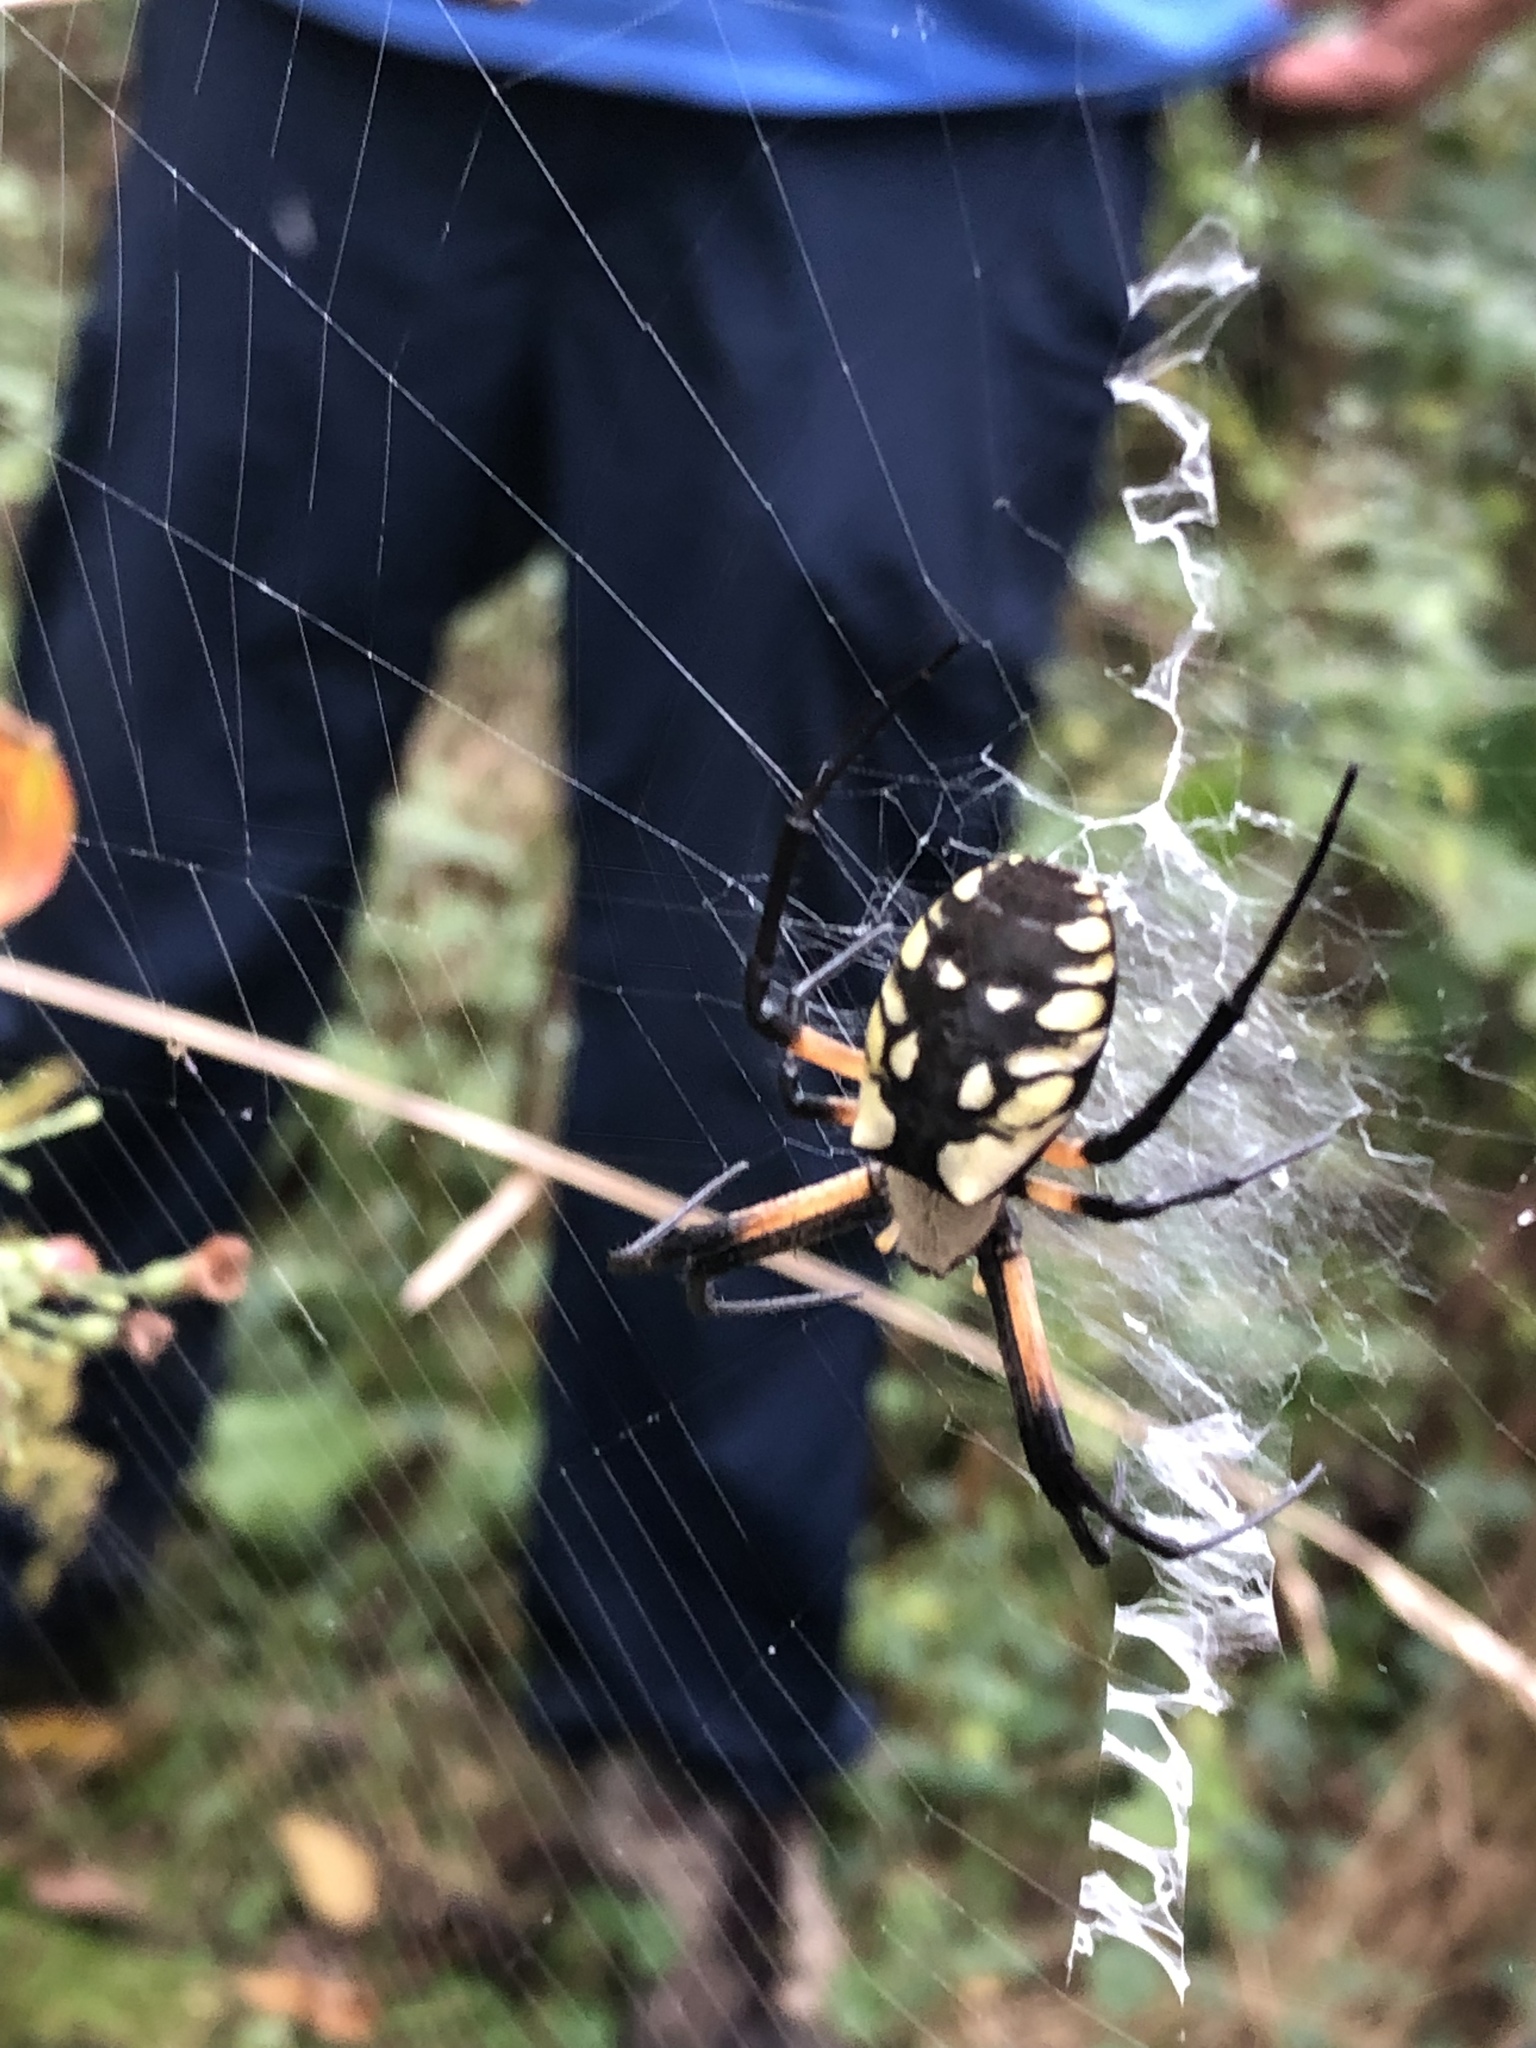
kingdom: Animalia
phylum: Arthropoda
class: Arachnida
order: Araneae
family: Araneidae
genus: Argiope
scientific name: Argiope aurantia
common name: Orb weavers
